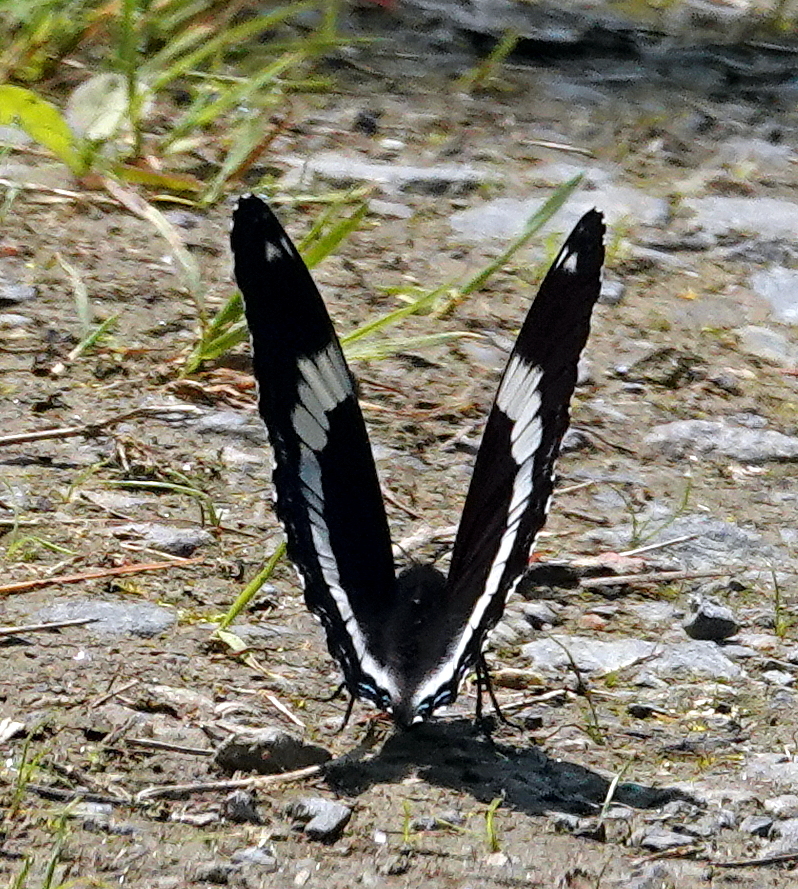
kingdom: Animalia
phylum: Arthropoda
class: Insecta
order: Lepidoptera
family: Nymphalidae
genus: Limenitis
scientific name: Limenitis arthemis
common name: Red-spotted admiral
